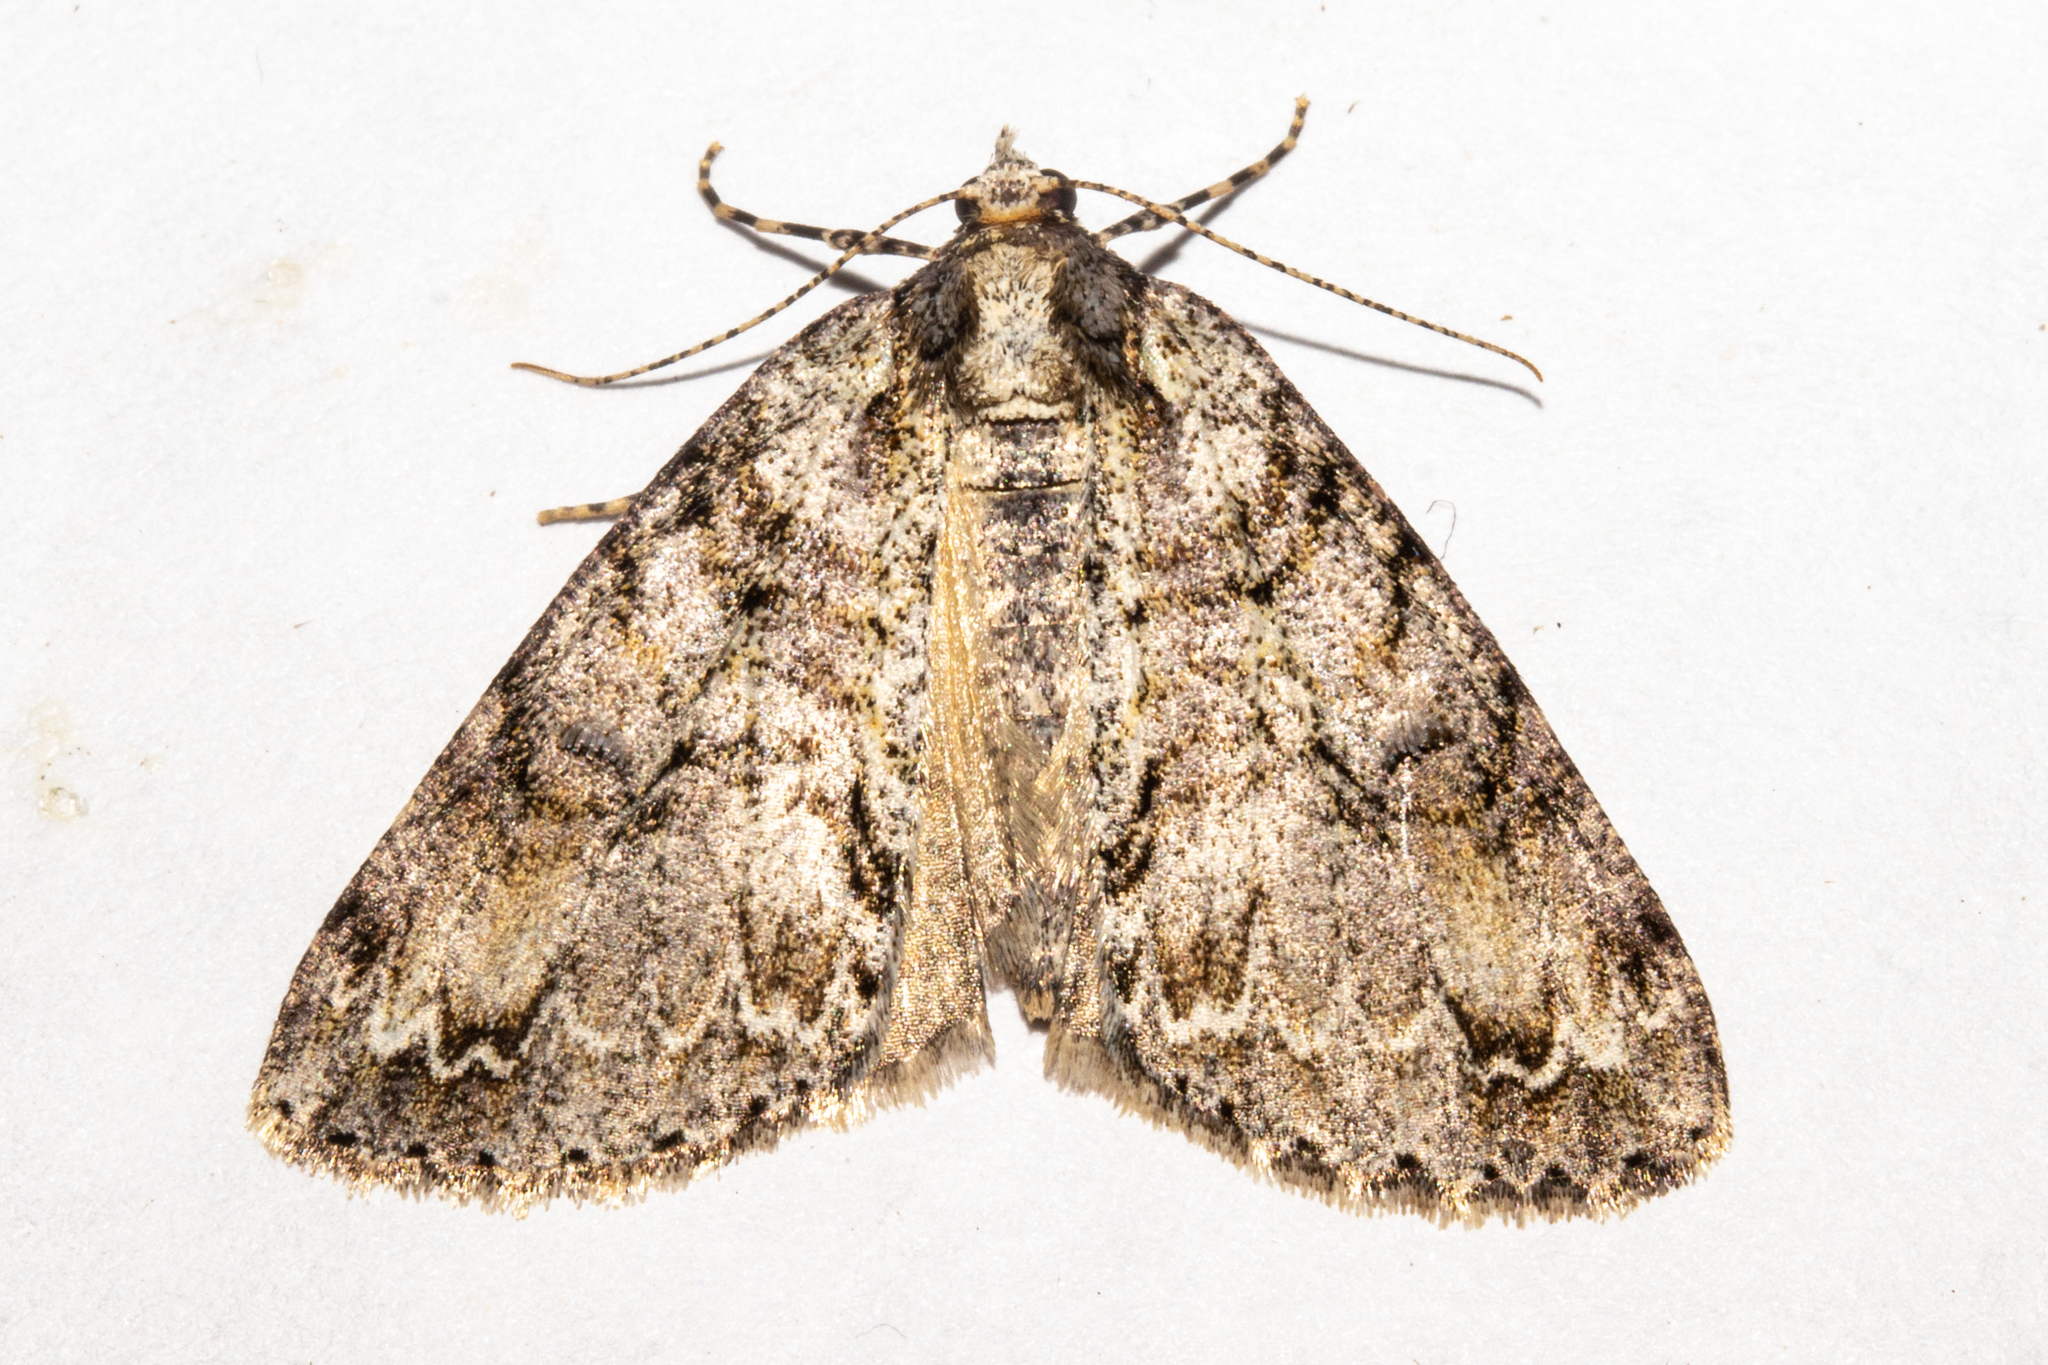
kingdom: Animalia
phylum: Arthropoda
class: Insecta
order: Lepidoptera
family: Geometridae
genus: Pseudocoremia
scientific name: Pseudocoremia suavis
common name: Common forest looper
